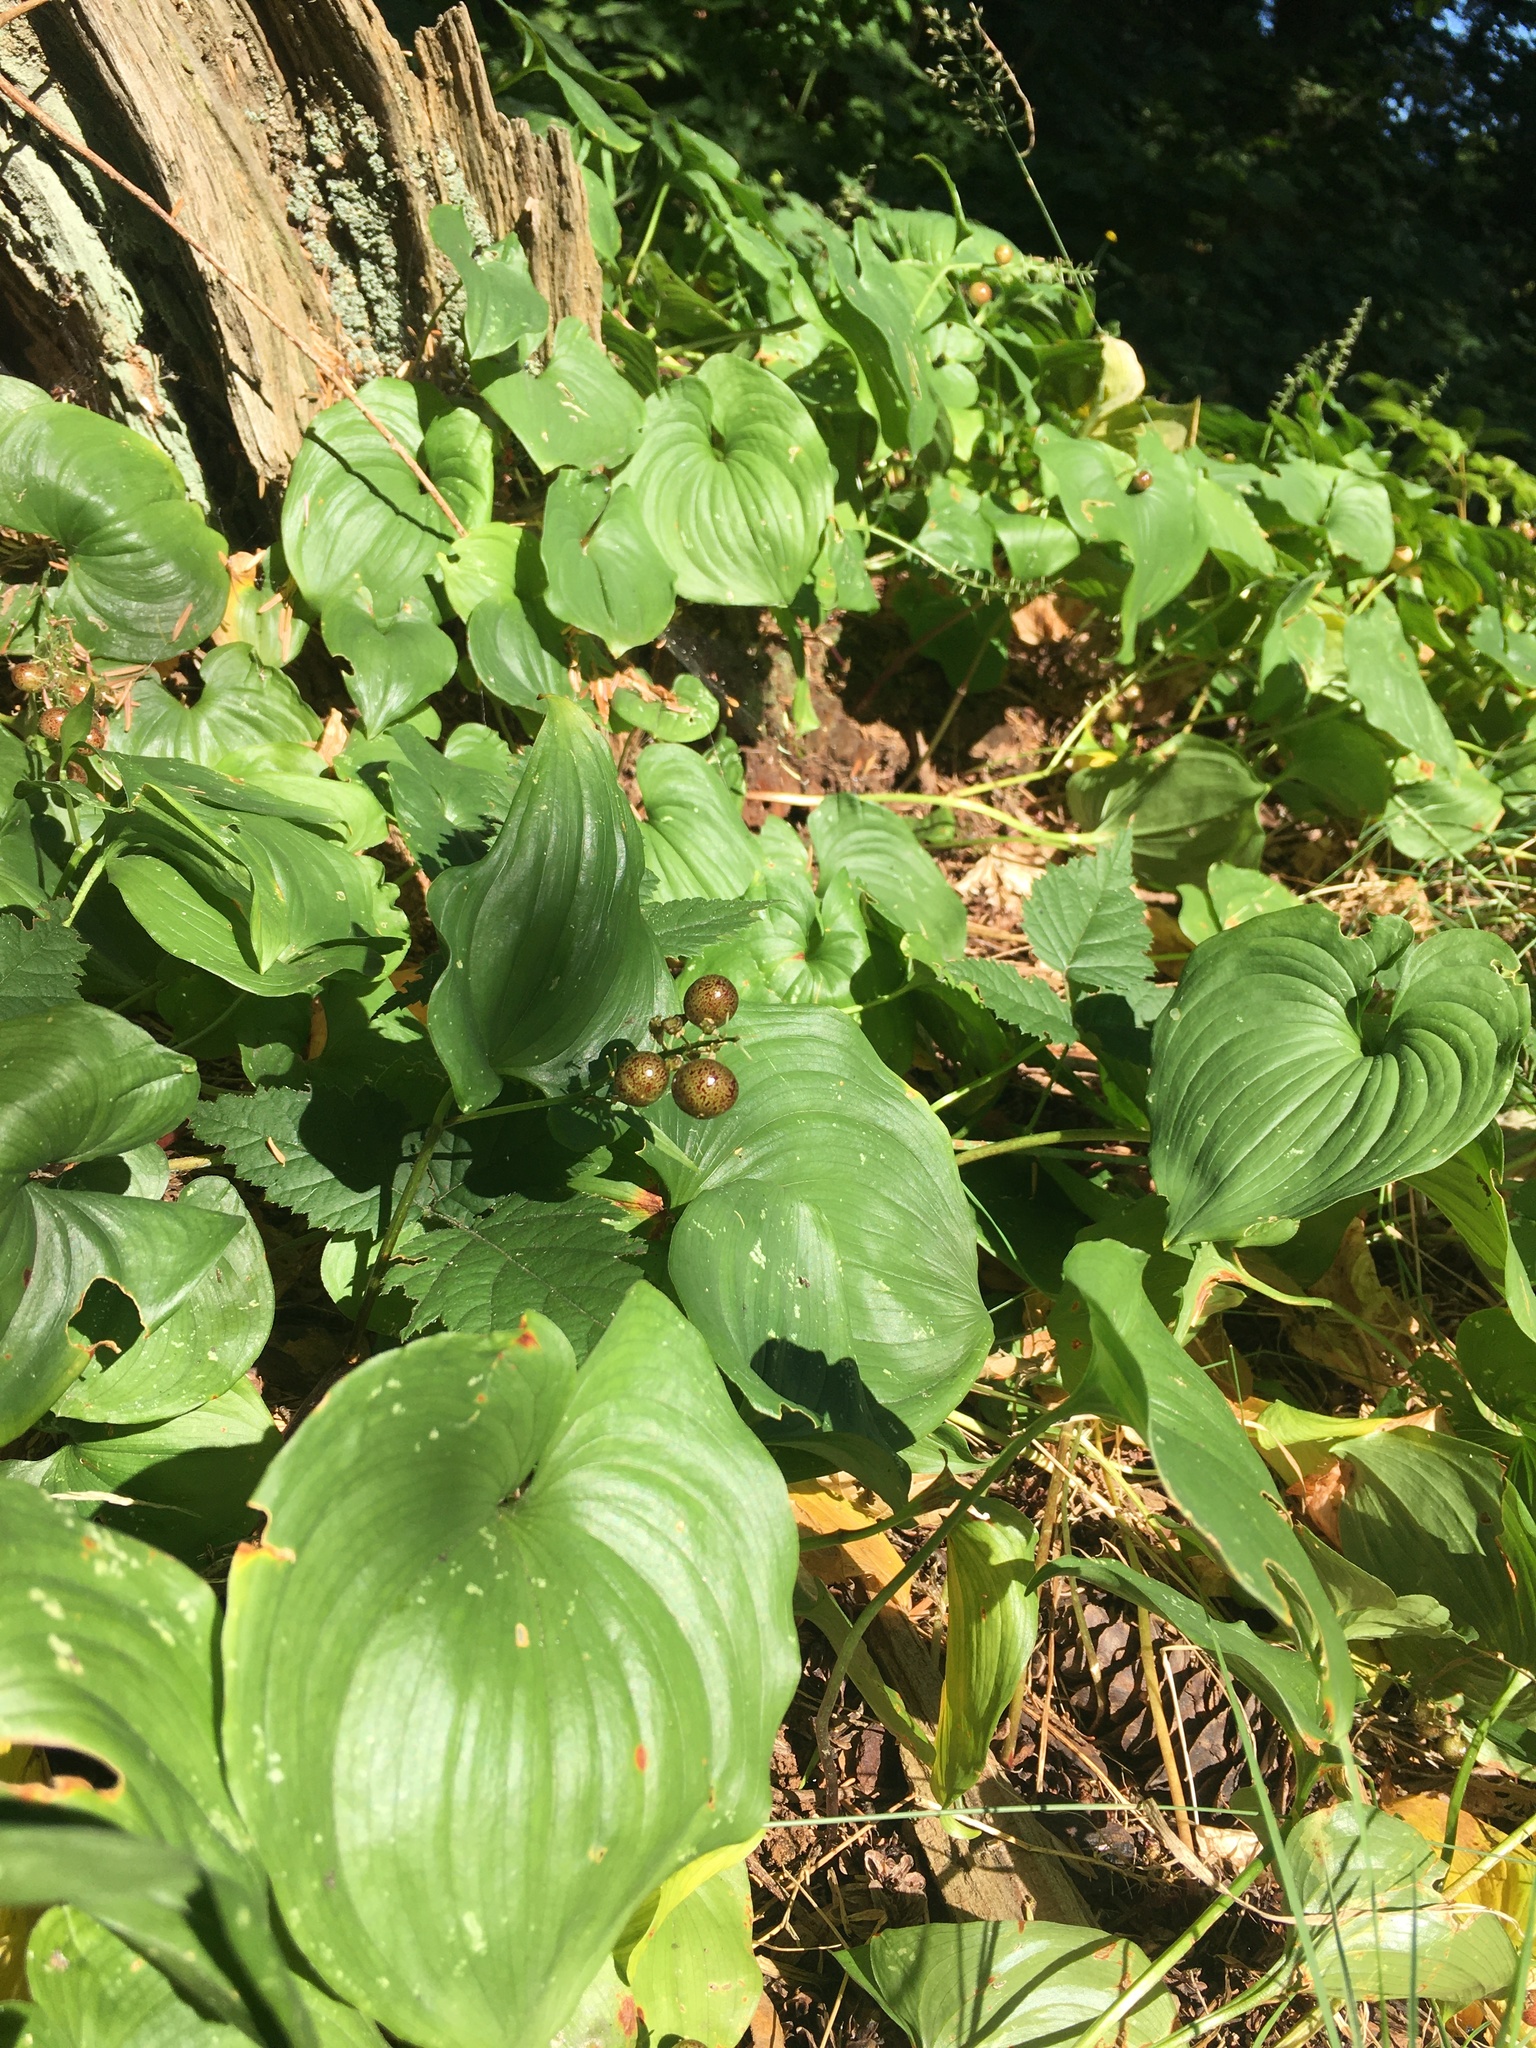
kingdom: Plantae
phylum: Tracheophyta
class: Liliopsida
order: Asparagales
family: Asparagaceae
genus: Maianthemum
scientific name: Maianthemum dilatatum
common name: False lily-of-the-valley
